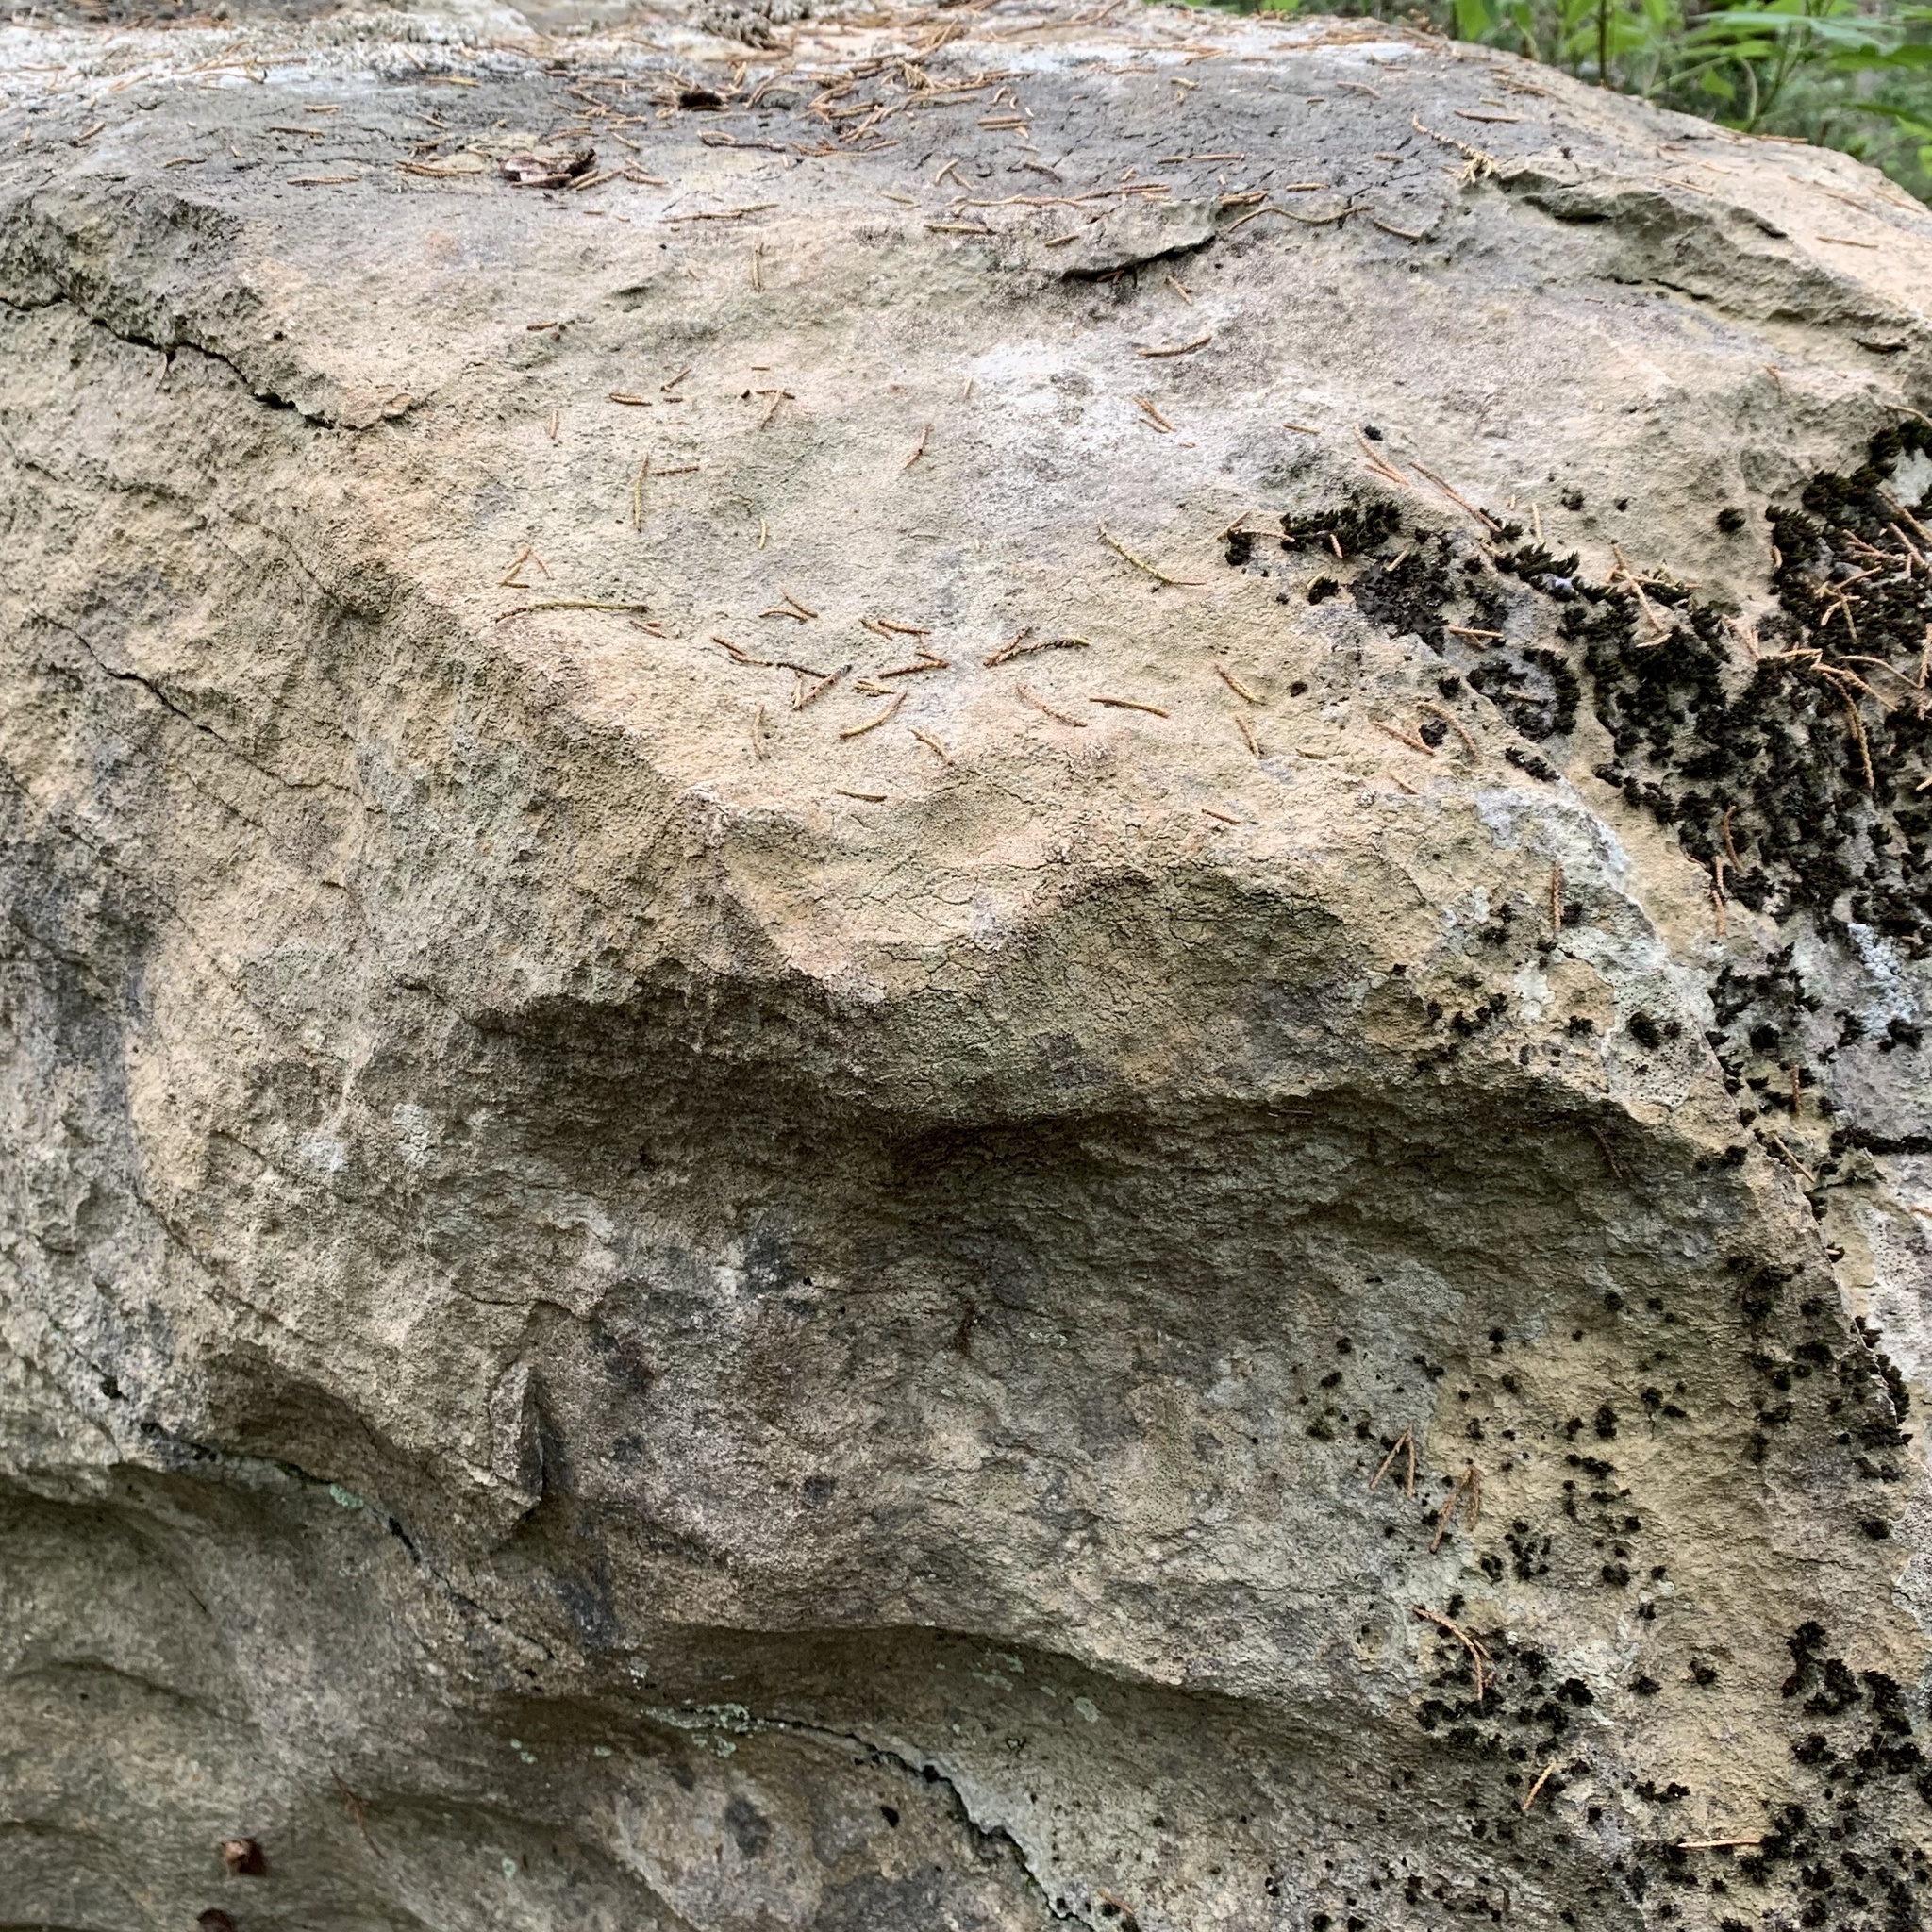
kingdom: Fungi
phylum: Ascomycota
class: Lecanoromycetes
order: Ostropales
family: Stictidaceae
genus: Petractis
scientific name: Petractis farlowii
